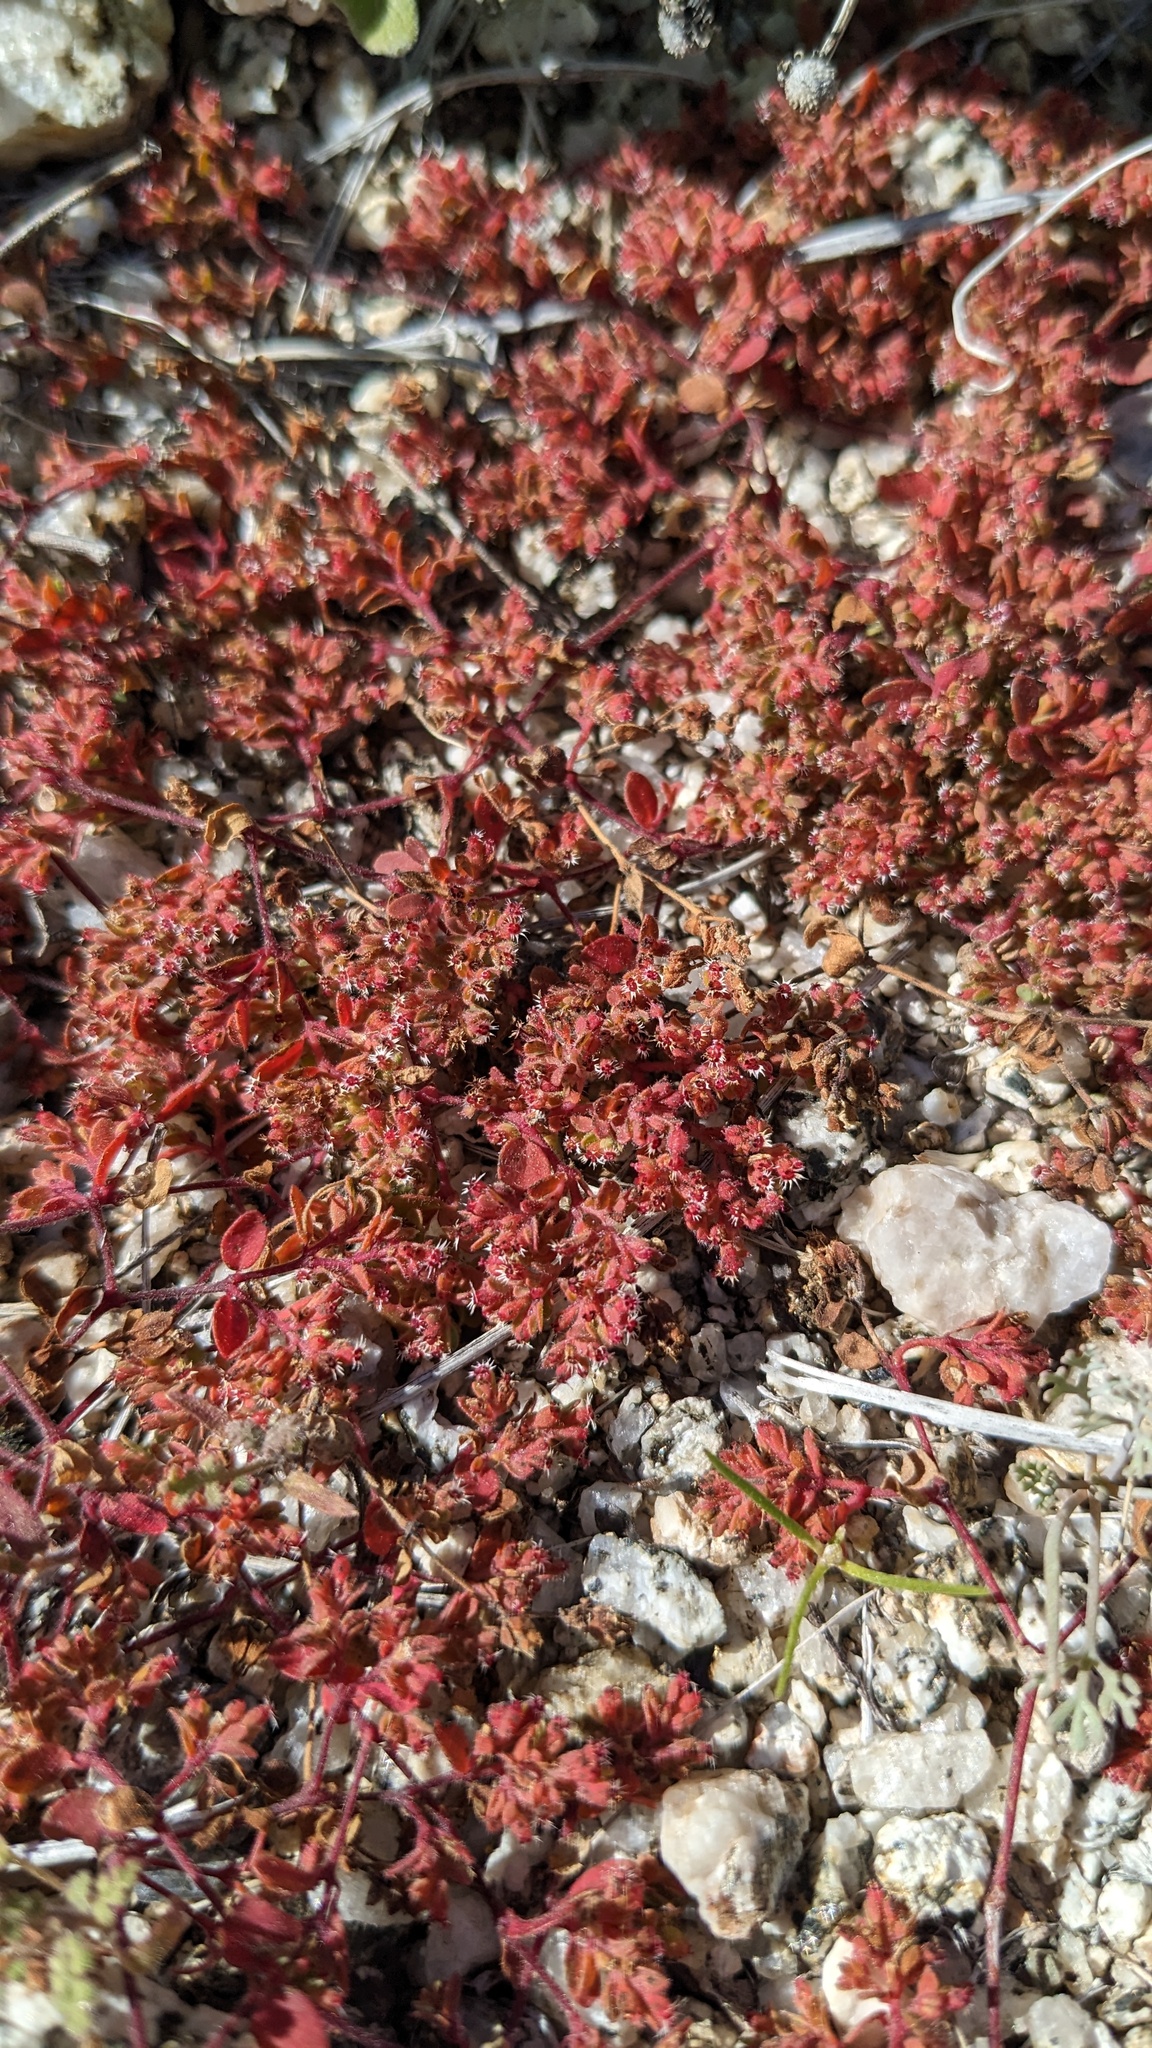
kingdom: Plantae
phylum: Tracheophyta
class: Magnoliopsida
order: Malpighiales
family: Euphorbiaceae
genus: Euphorbia
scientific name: Euphorbia setiloba
